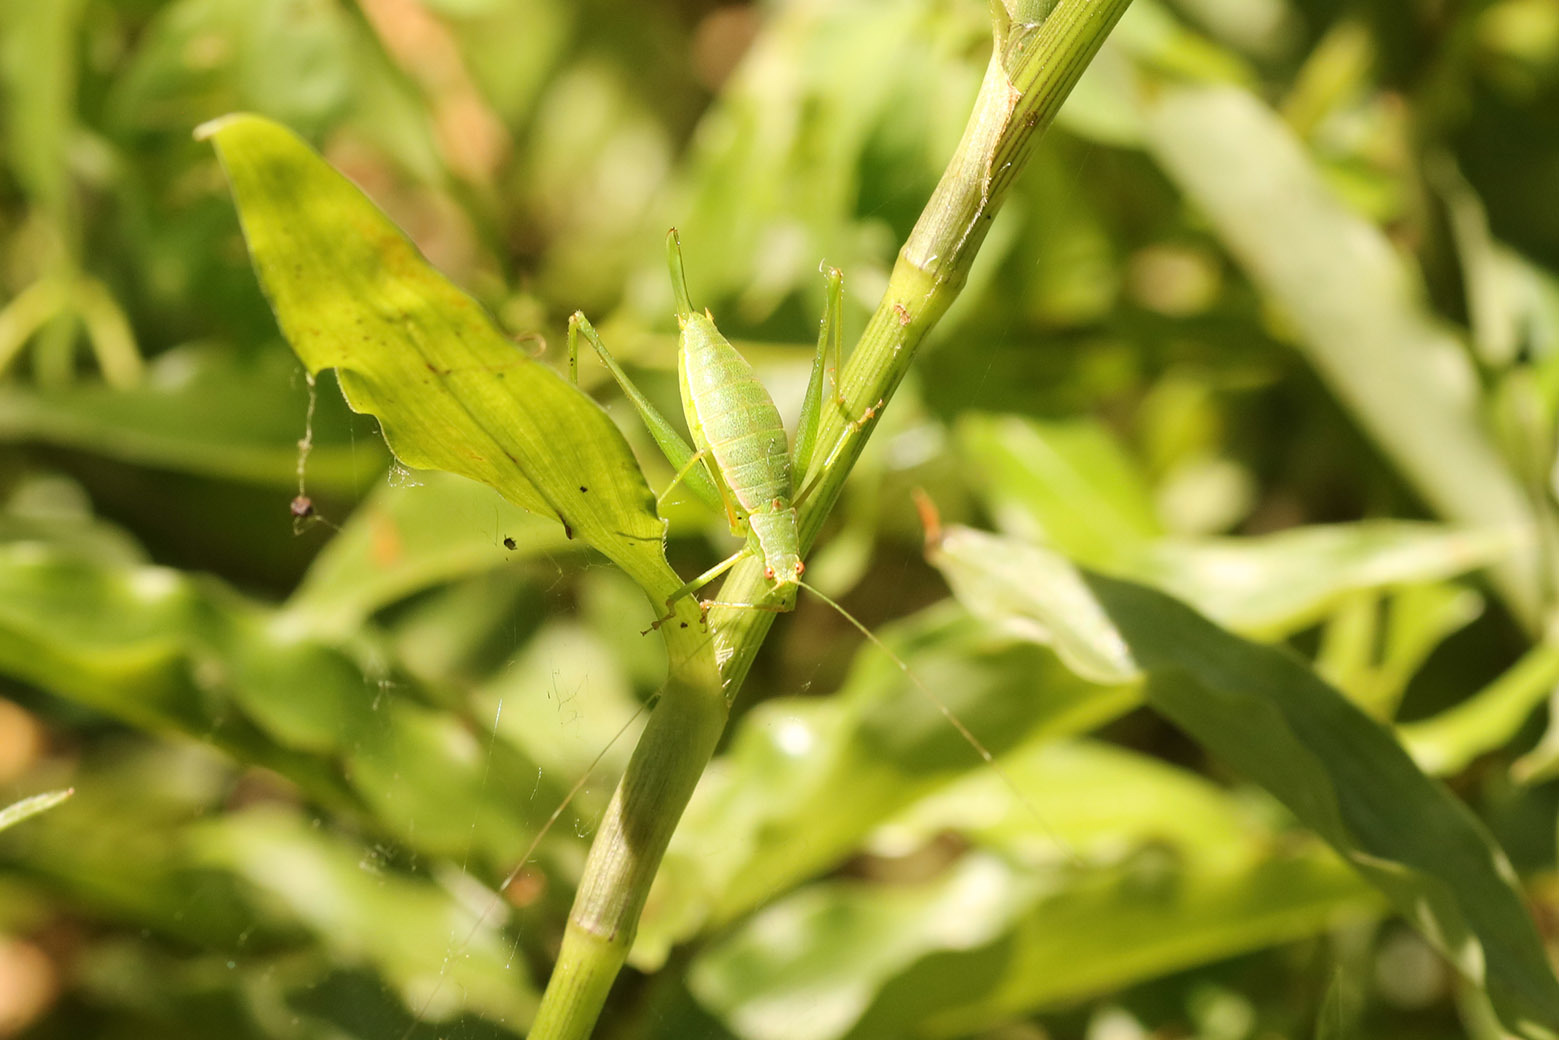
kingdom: Animalia
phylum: Arthropoda
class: Insecta
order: Orthoptera
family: Tettigoniidae
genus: Xenicola
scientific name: Xenicola dohrni
